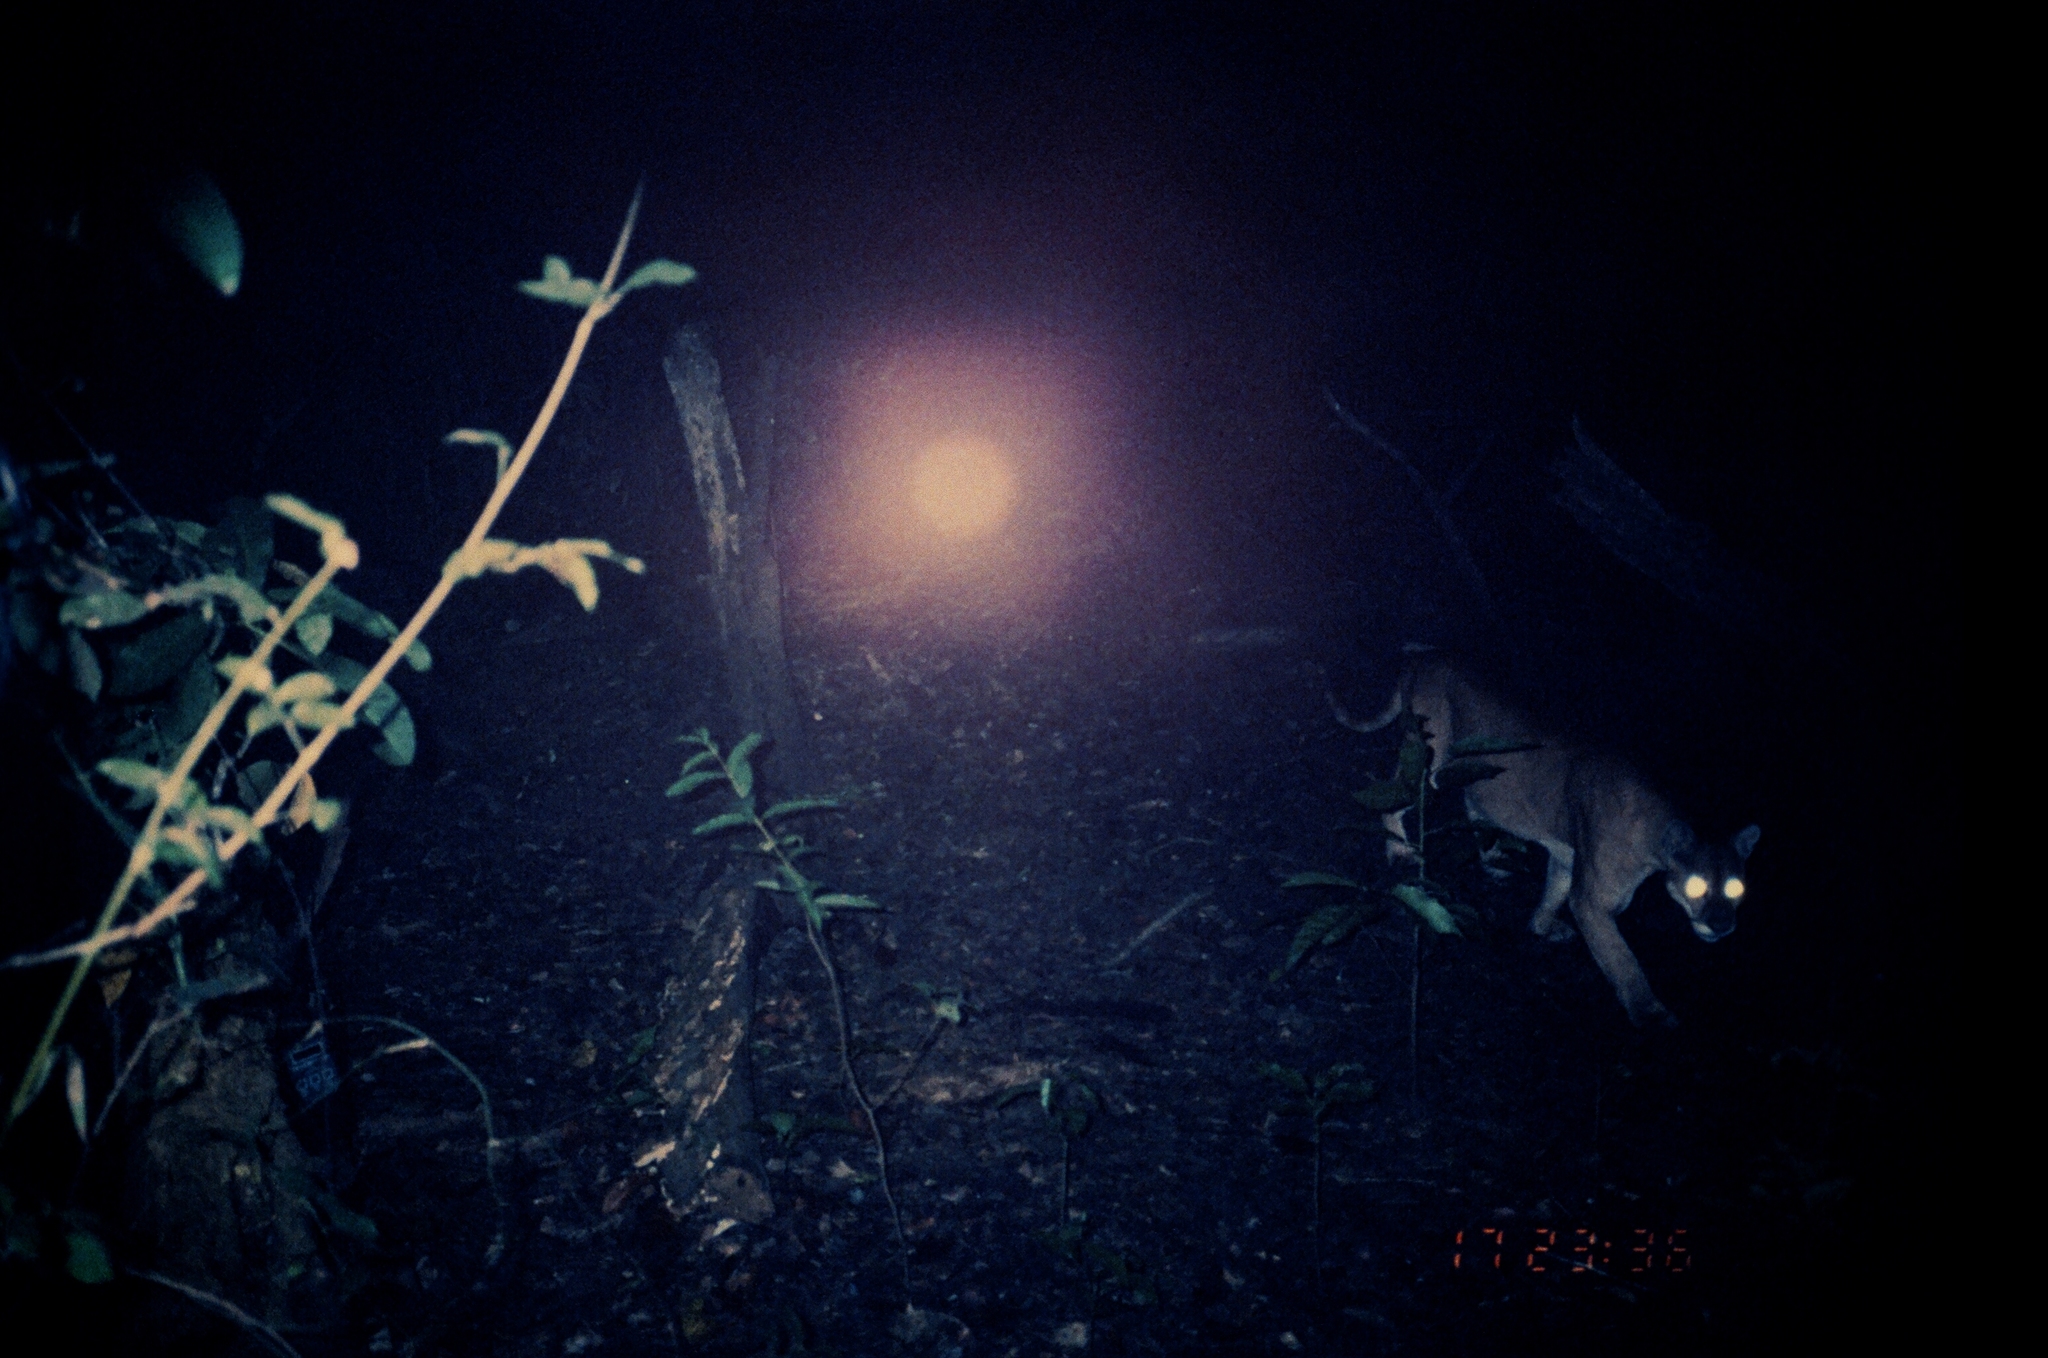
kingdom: Animalia
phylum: Chordata
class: Mammalia
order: Carnivora
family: Felidae
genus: Puma
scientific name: Puma concolor
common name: Puma
